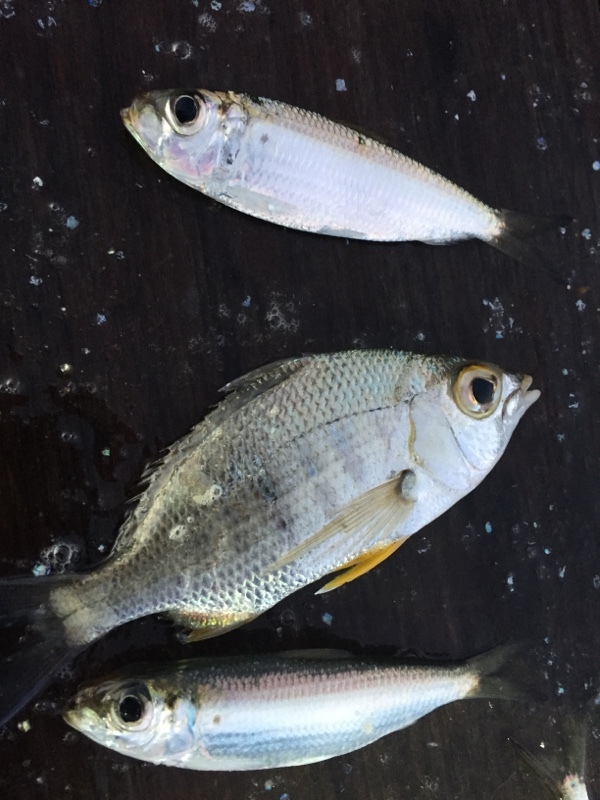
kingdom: Animalia
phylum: Chordata
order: Perciformes
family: Gerreidae
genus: Gerres
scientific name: Gerres cinereus
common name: Hedow
